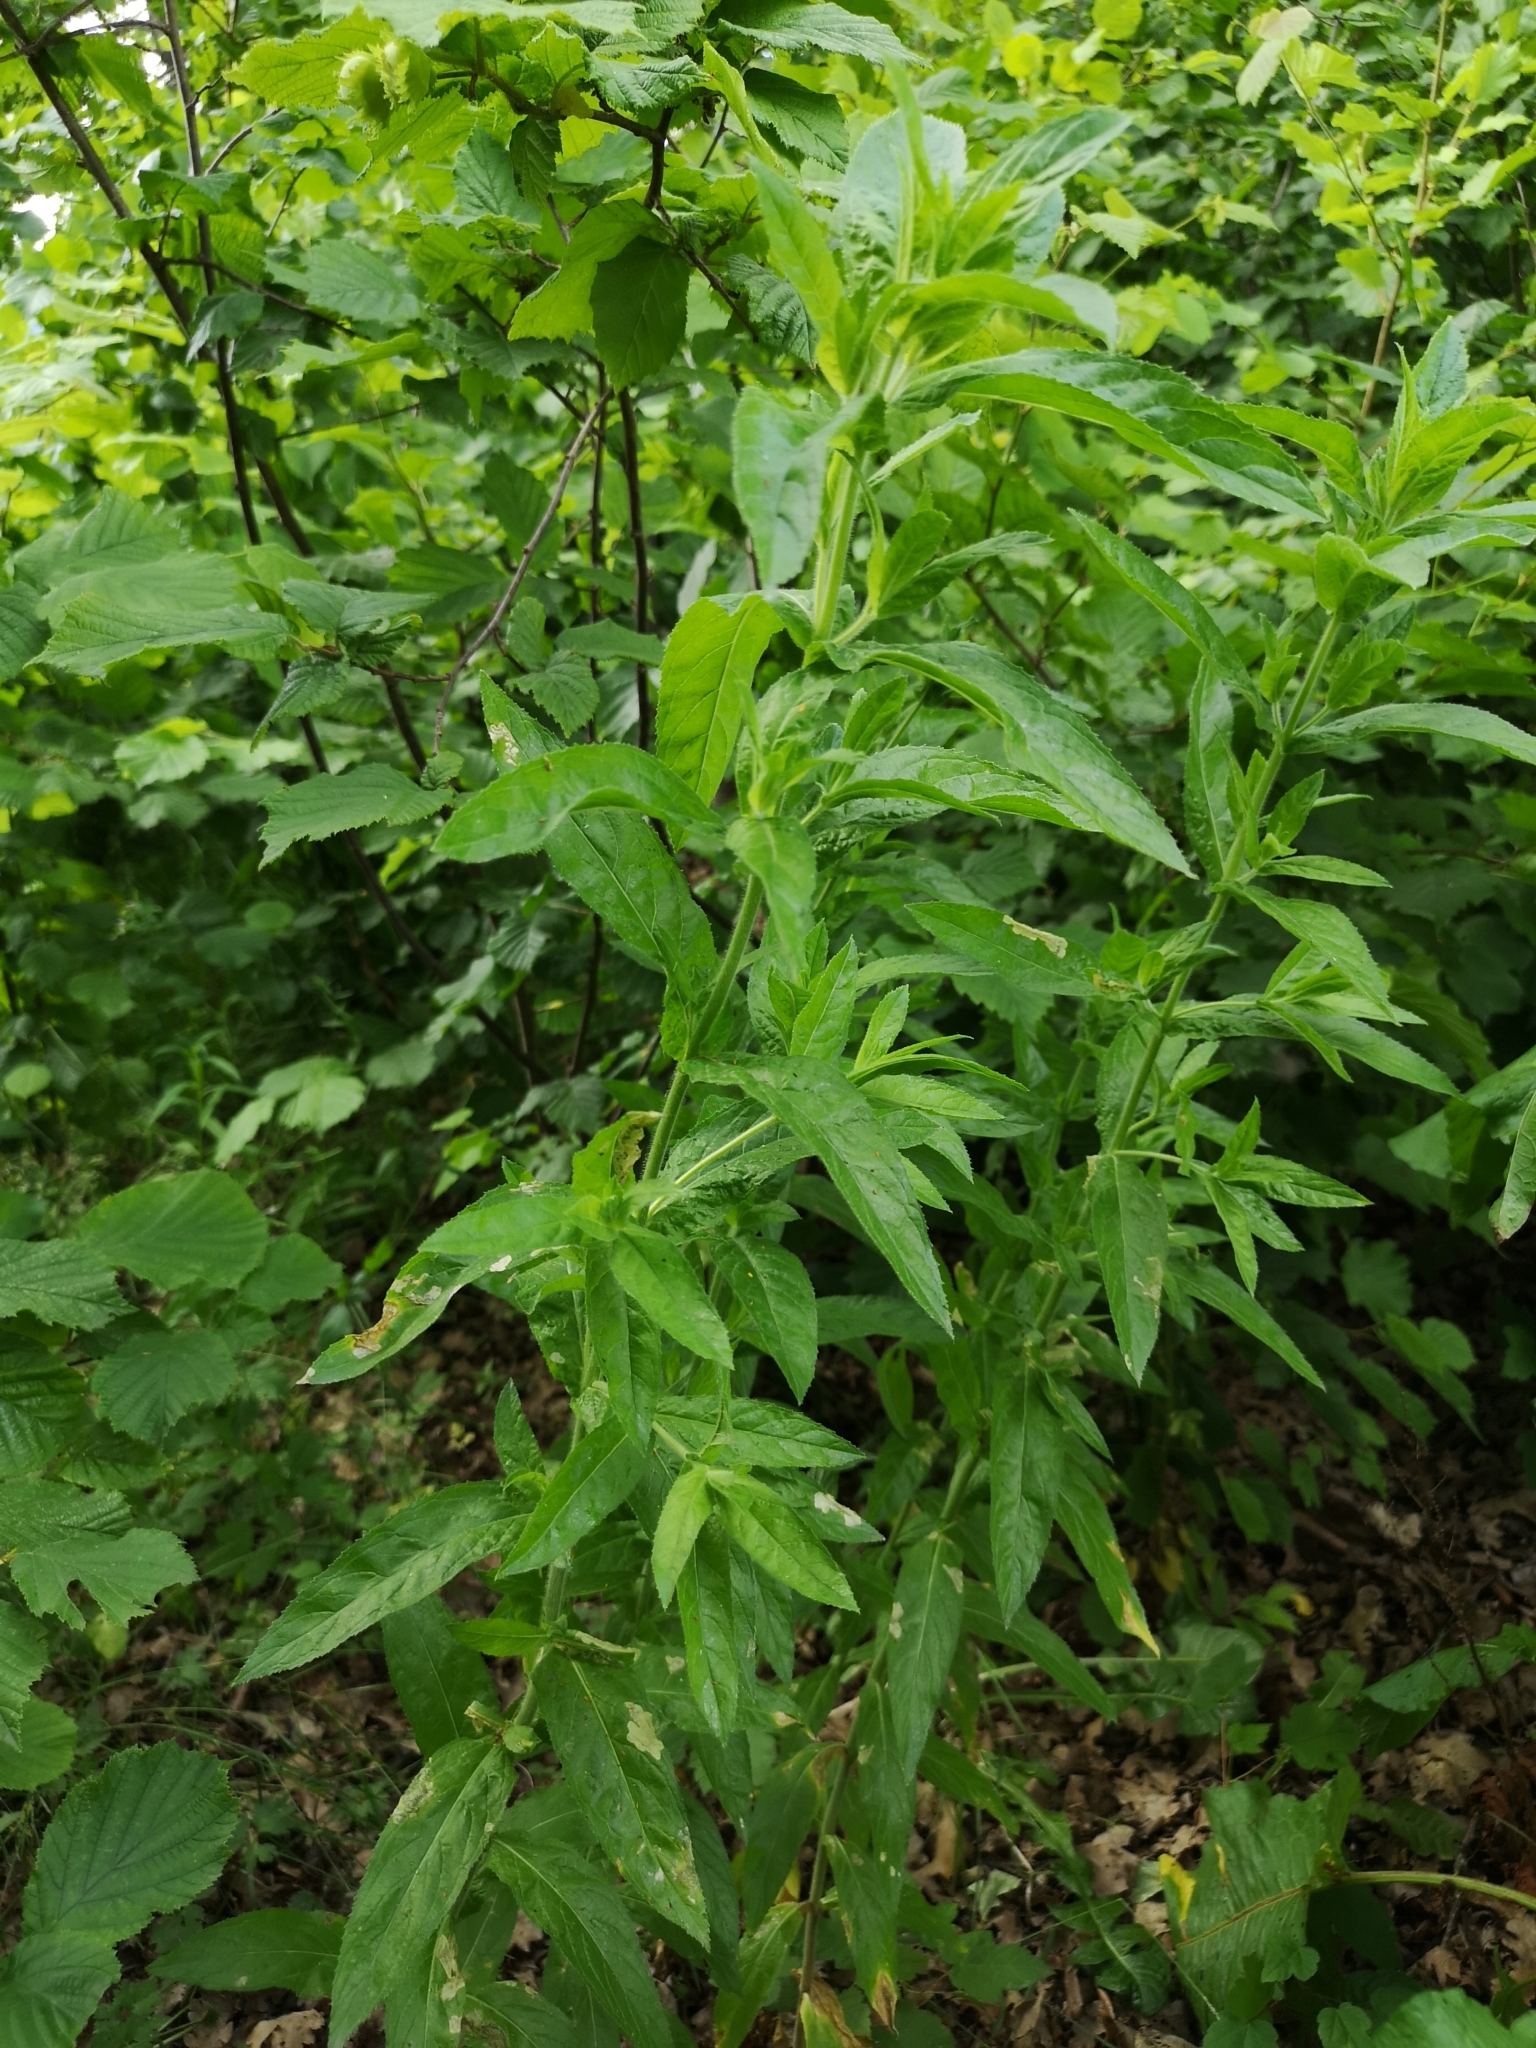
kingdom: Plantae
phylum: Tracheophyta
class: Magnoliopsida
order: Myrtales
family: Onagraceae
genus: Epilobium
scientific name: Epilobium hirsutum
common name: Great willowherb
